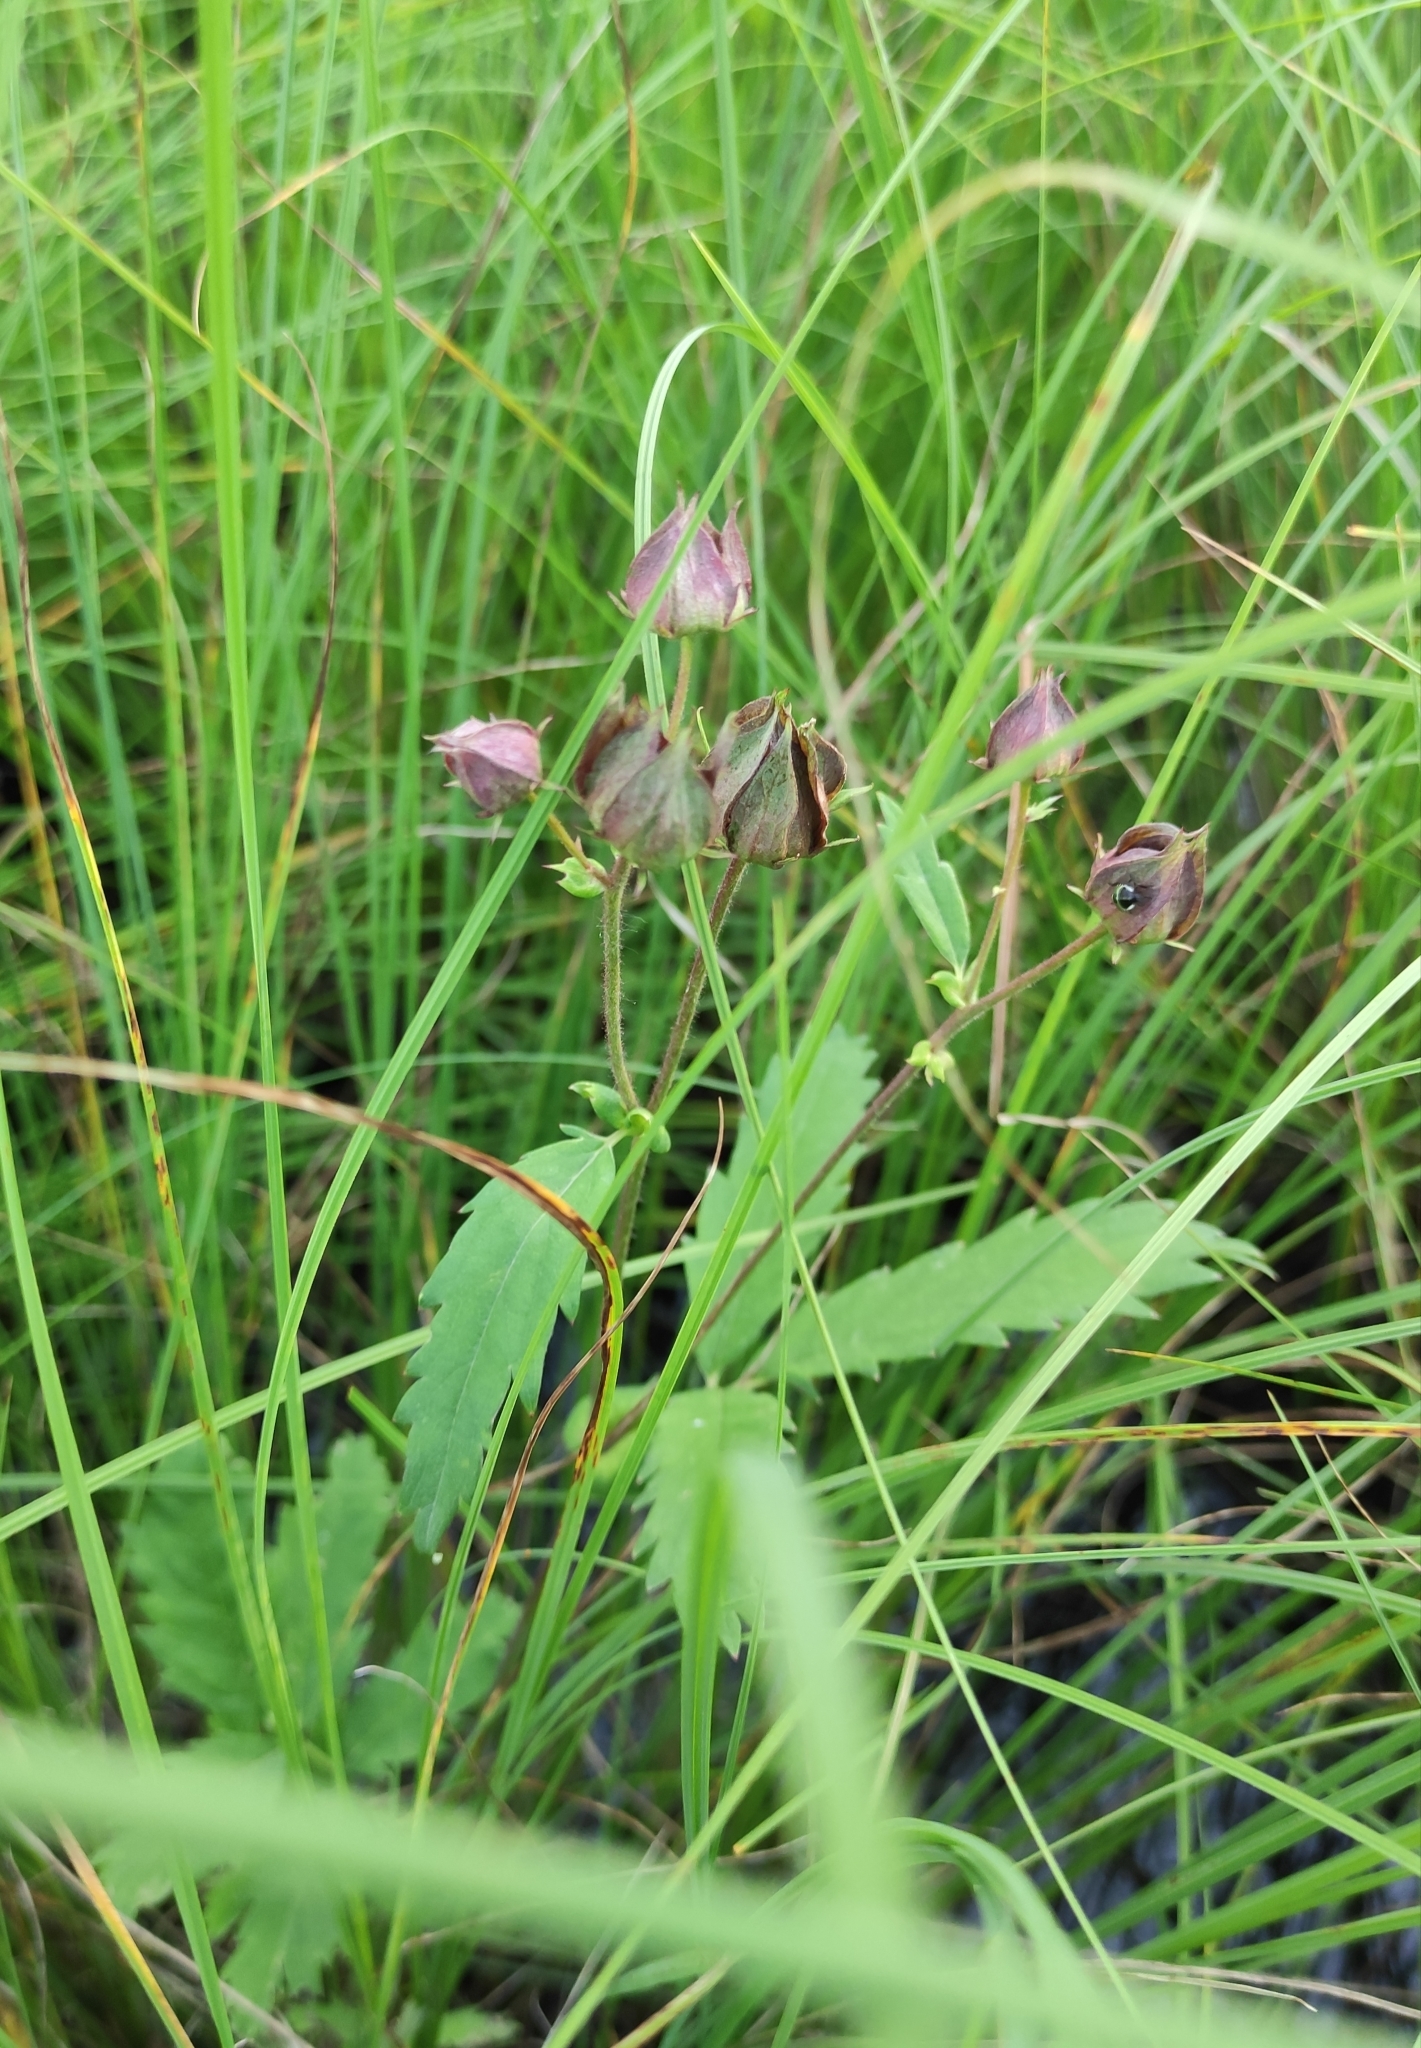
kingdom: Plantae
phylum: Tracheophyta
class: Magnoliopsida
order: Rosales
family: Rosaceae
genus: Comarum
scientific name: Comarum palustre
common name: Marsh cinquefoil
